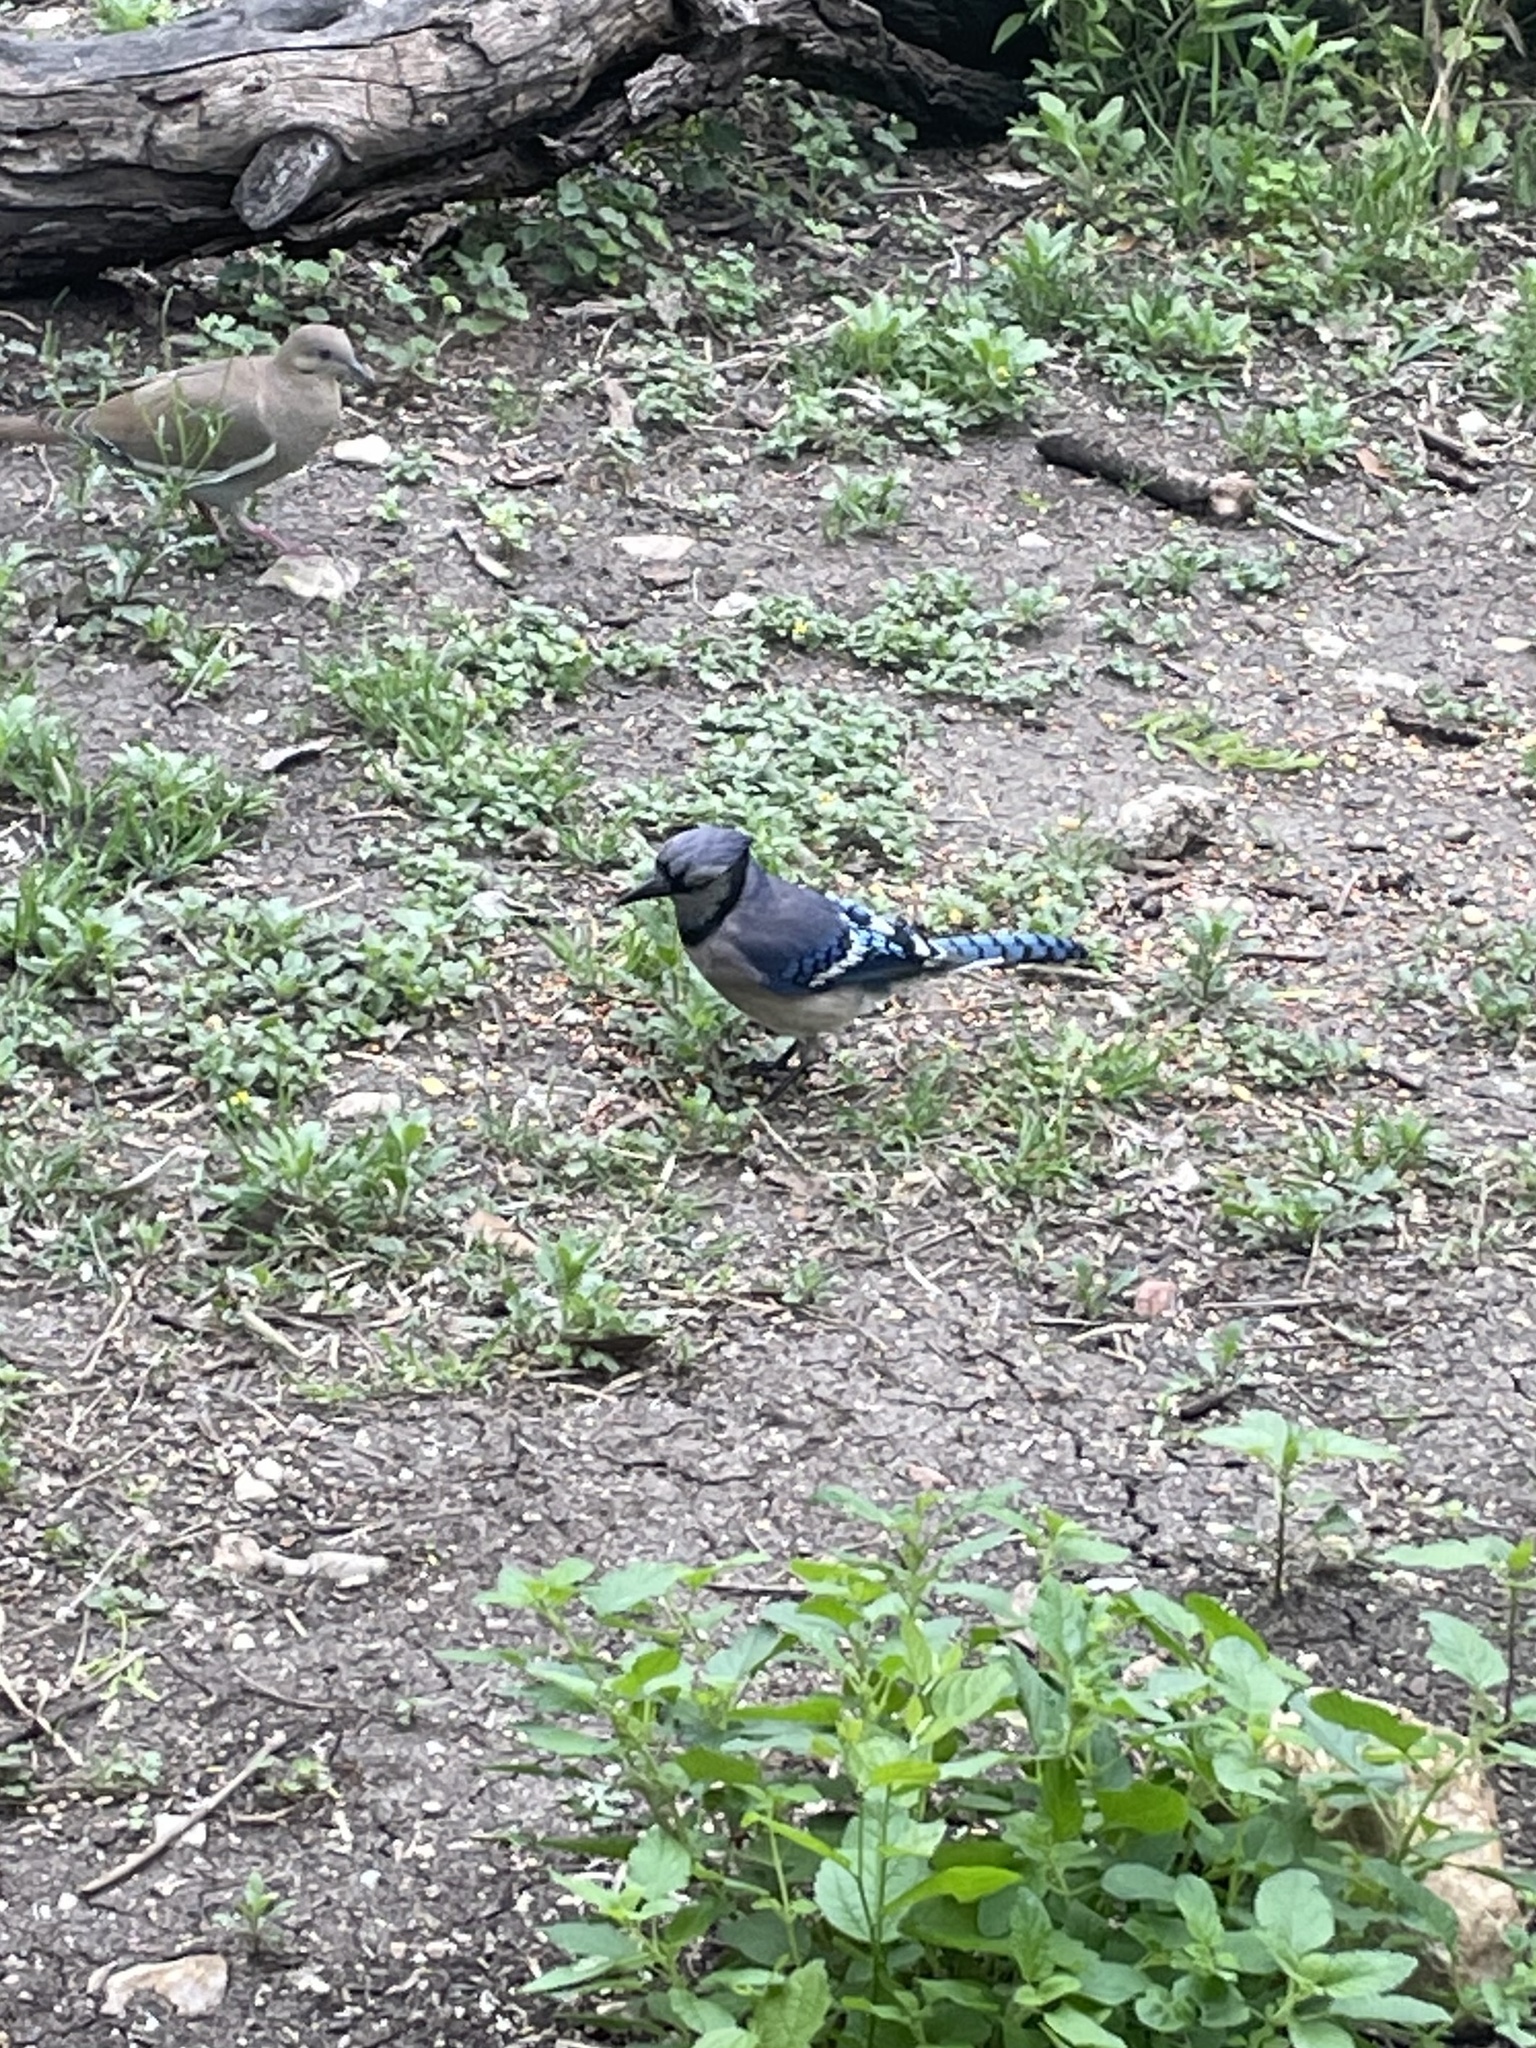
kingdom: Animalia
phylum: Chordata
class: Aves
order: Passeriformes
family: Corvidae
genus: Cyanocitta
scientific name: Cyanocitta cristata
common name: Blue jay
